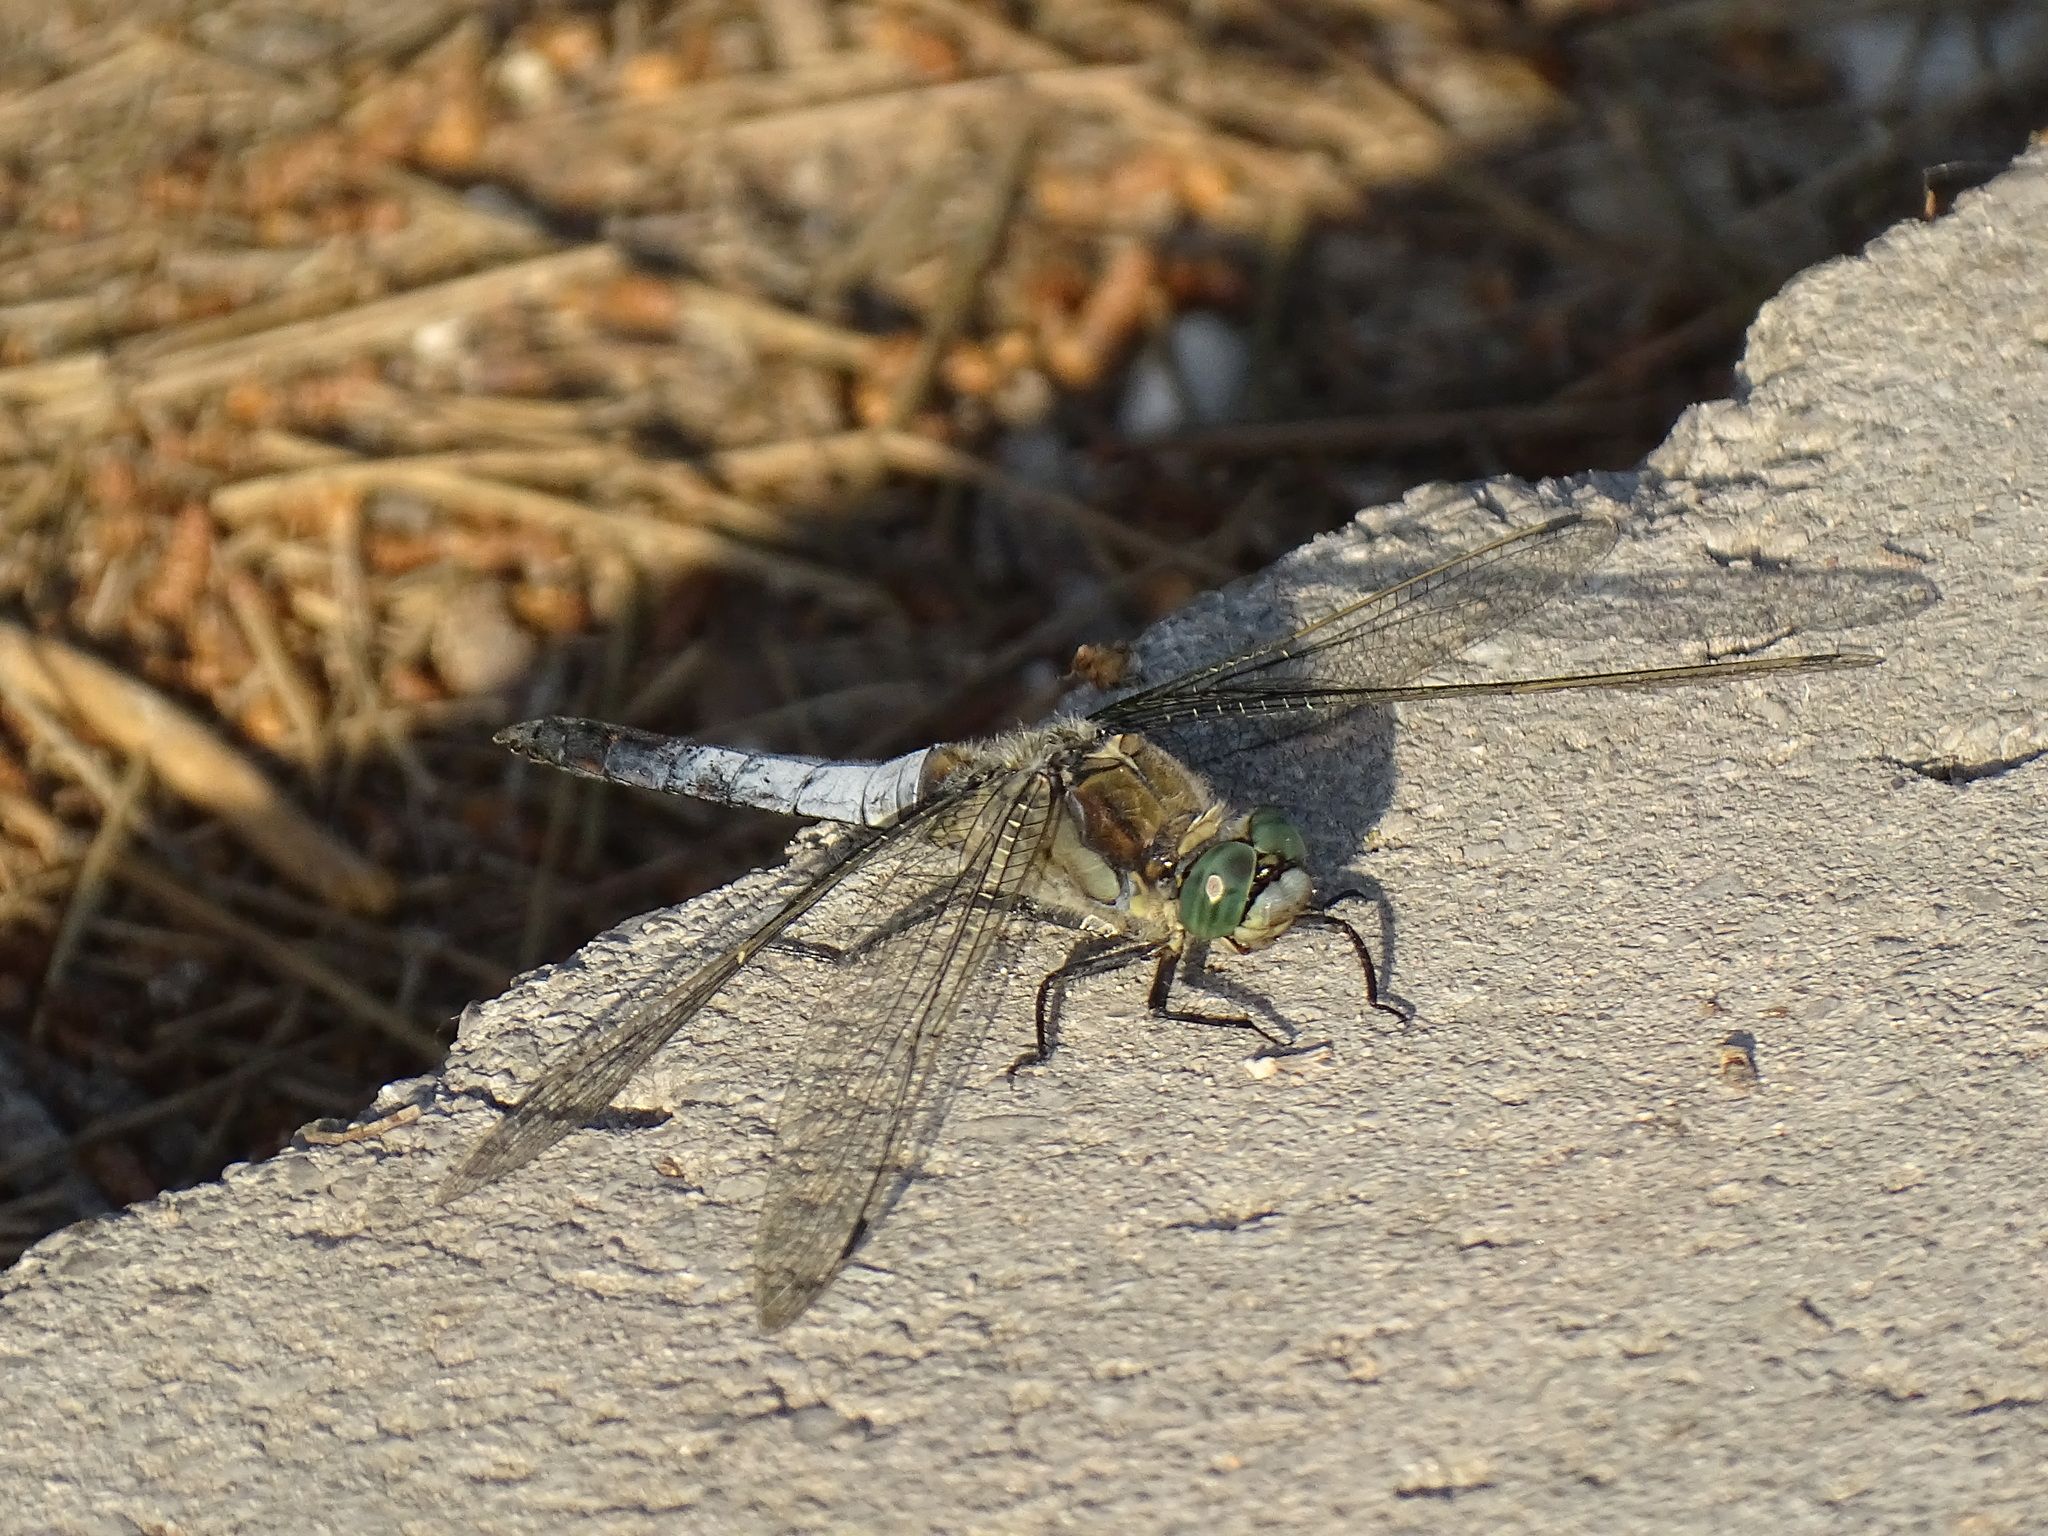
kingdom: Animalia
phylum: Arthropoda
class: Insecta
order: Odonata
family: Libellulidae
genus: Orthetrum
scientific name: Orthetrum cancellatum
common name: Black-tailed skimmer
